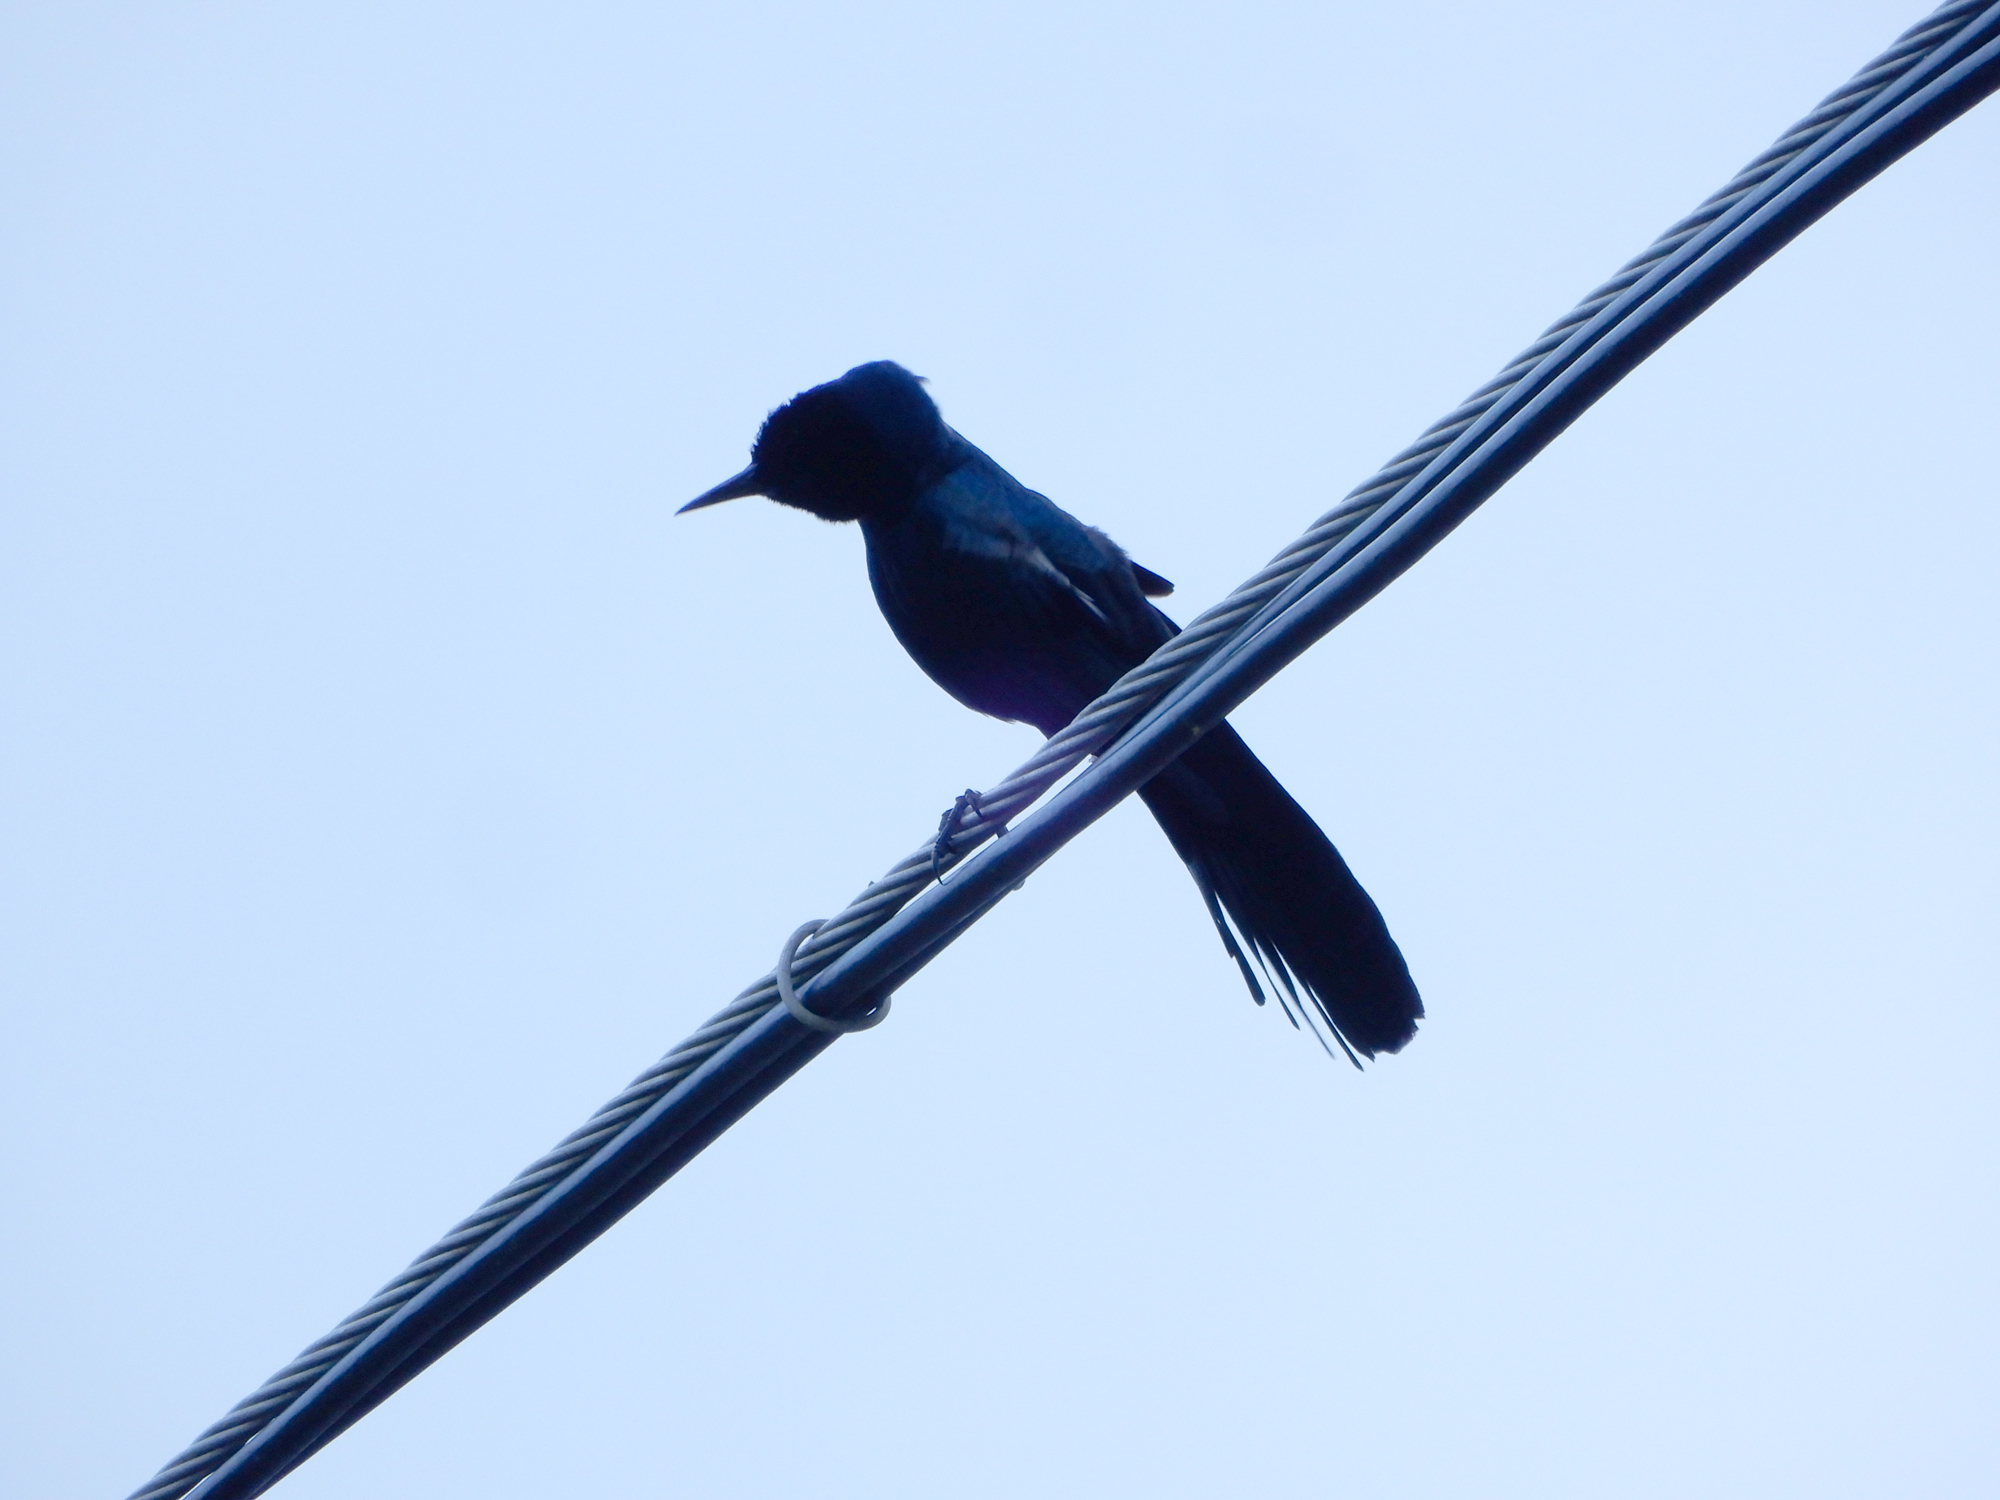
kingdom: Animalia
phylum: Chordata
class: Aves
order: Passeriformes
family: Icteridae
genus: Quiscalus
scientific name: Quiscalus major
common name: Boat-tailed grackle
